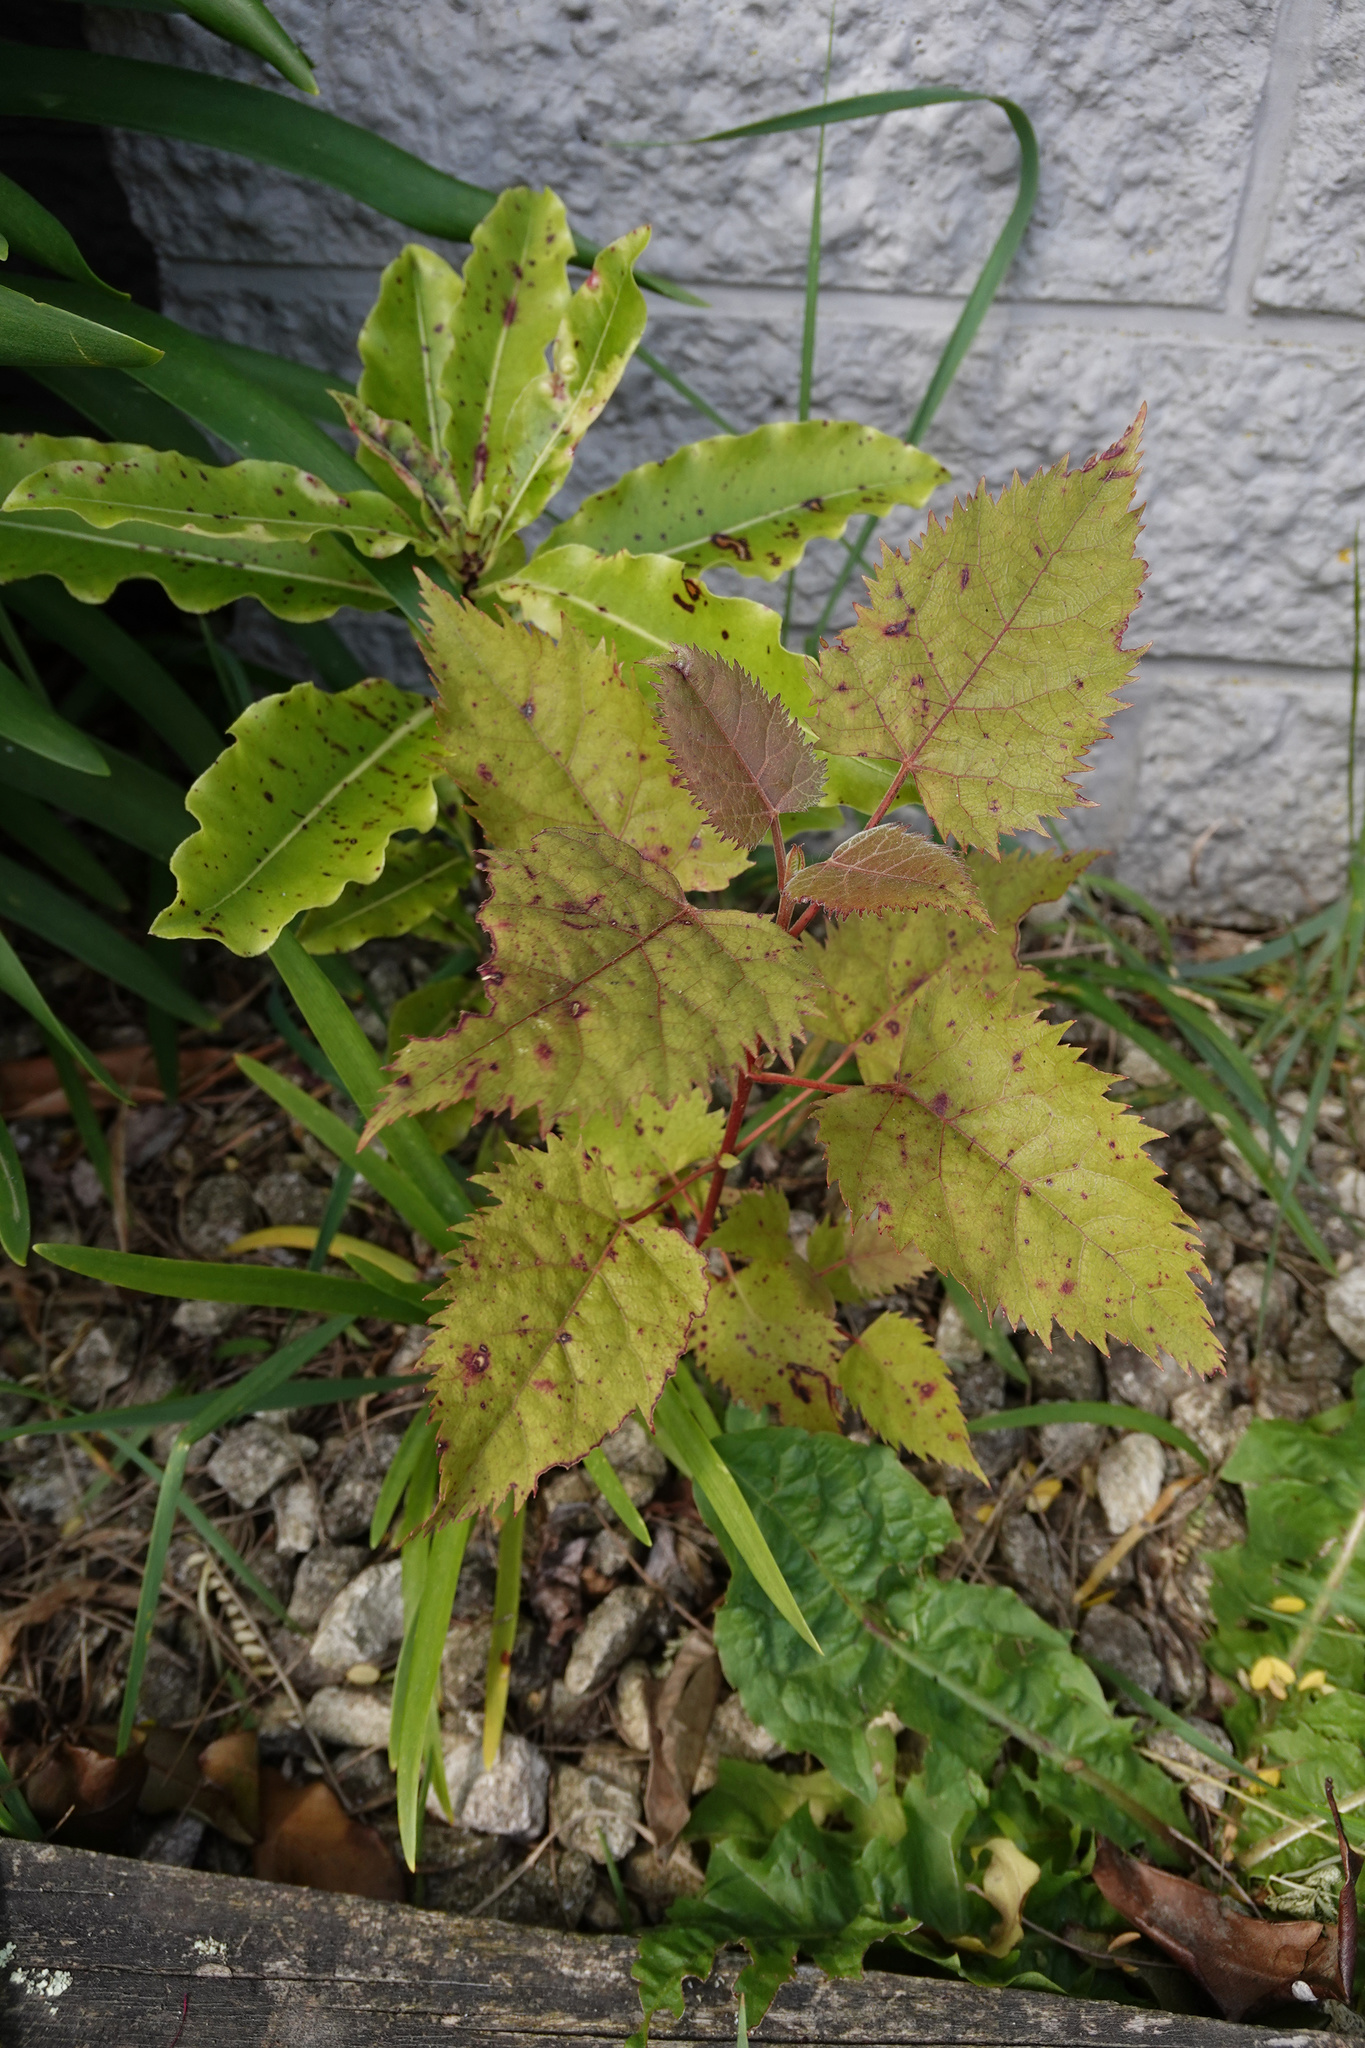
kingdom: Plantae
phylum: Tracheophyta
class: Magnoliopsida
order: Oxalidales
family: Elaeocarpaceae
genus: Aristotelia
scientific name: Aristotelia serrata
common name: New zealand wineberry
